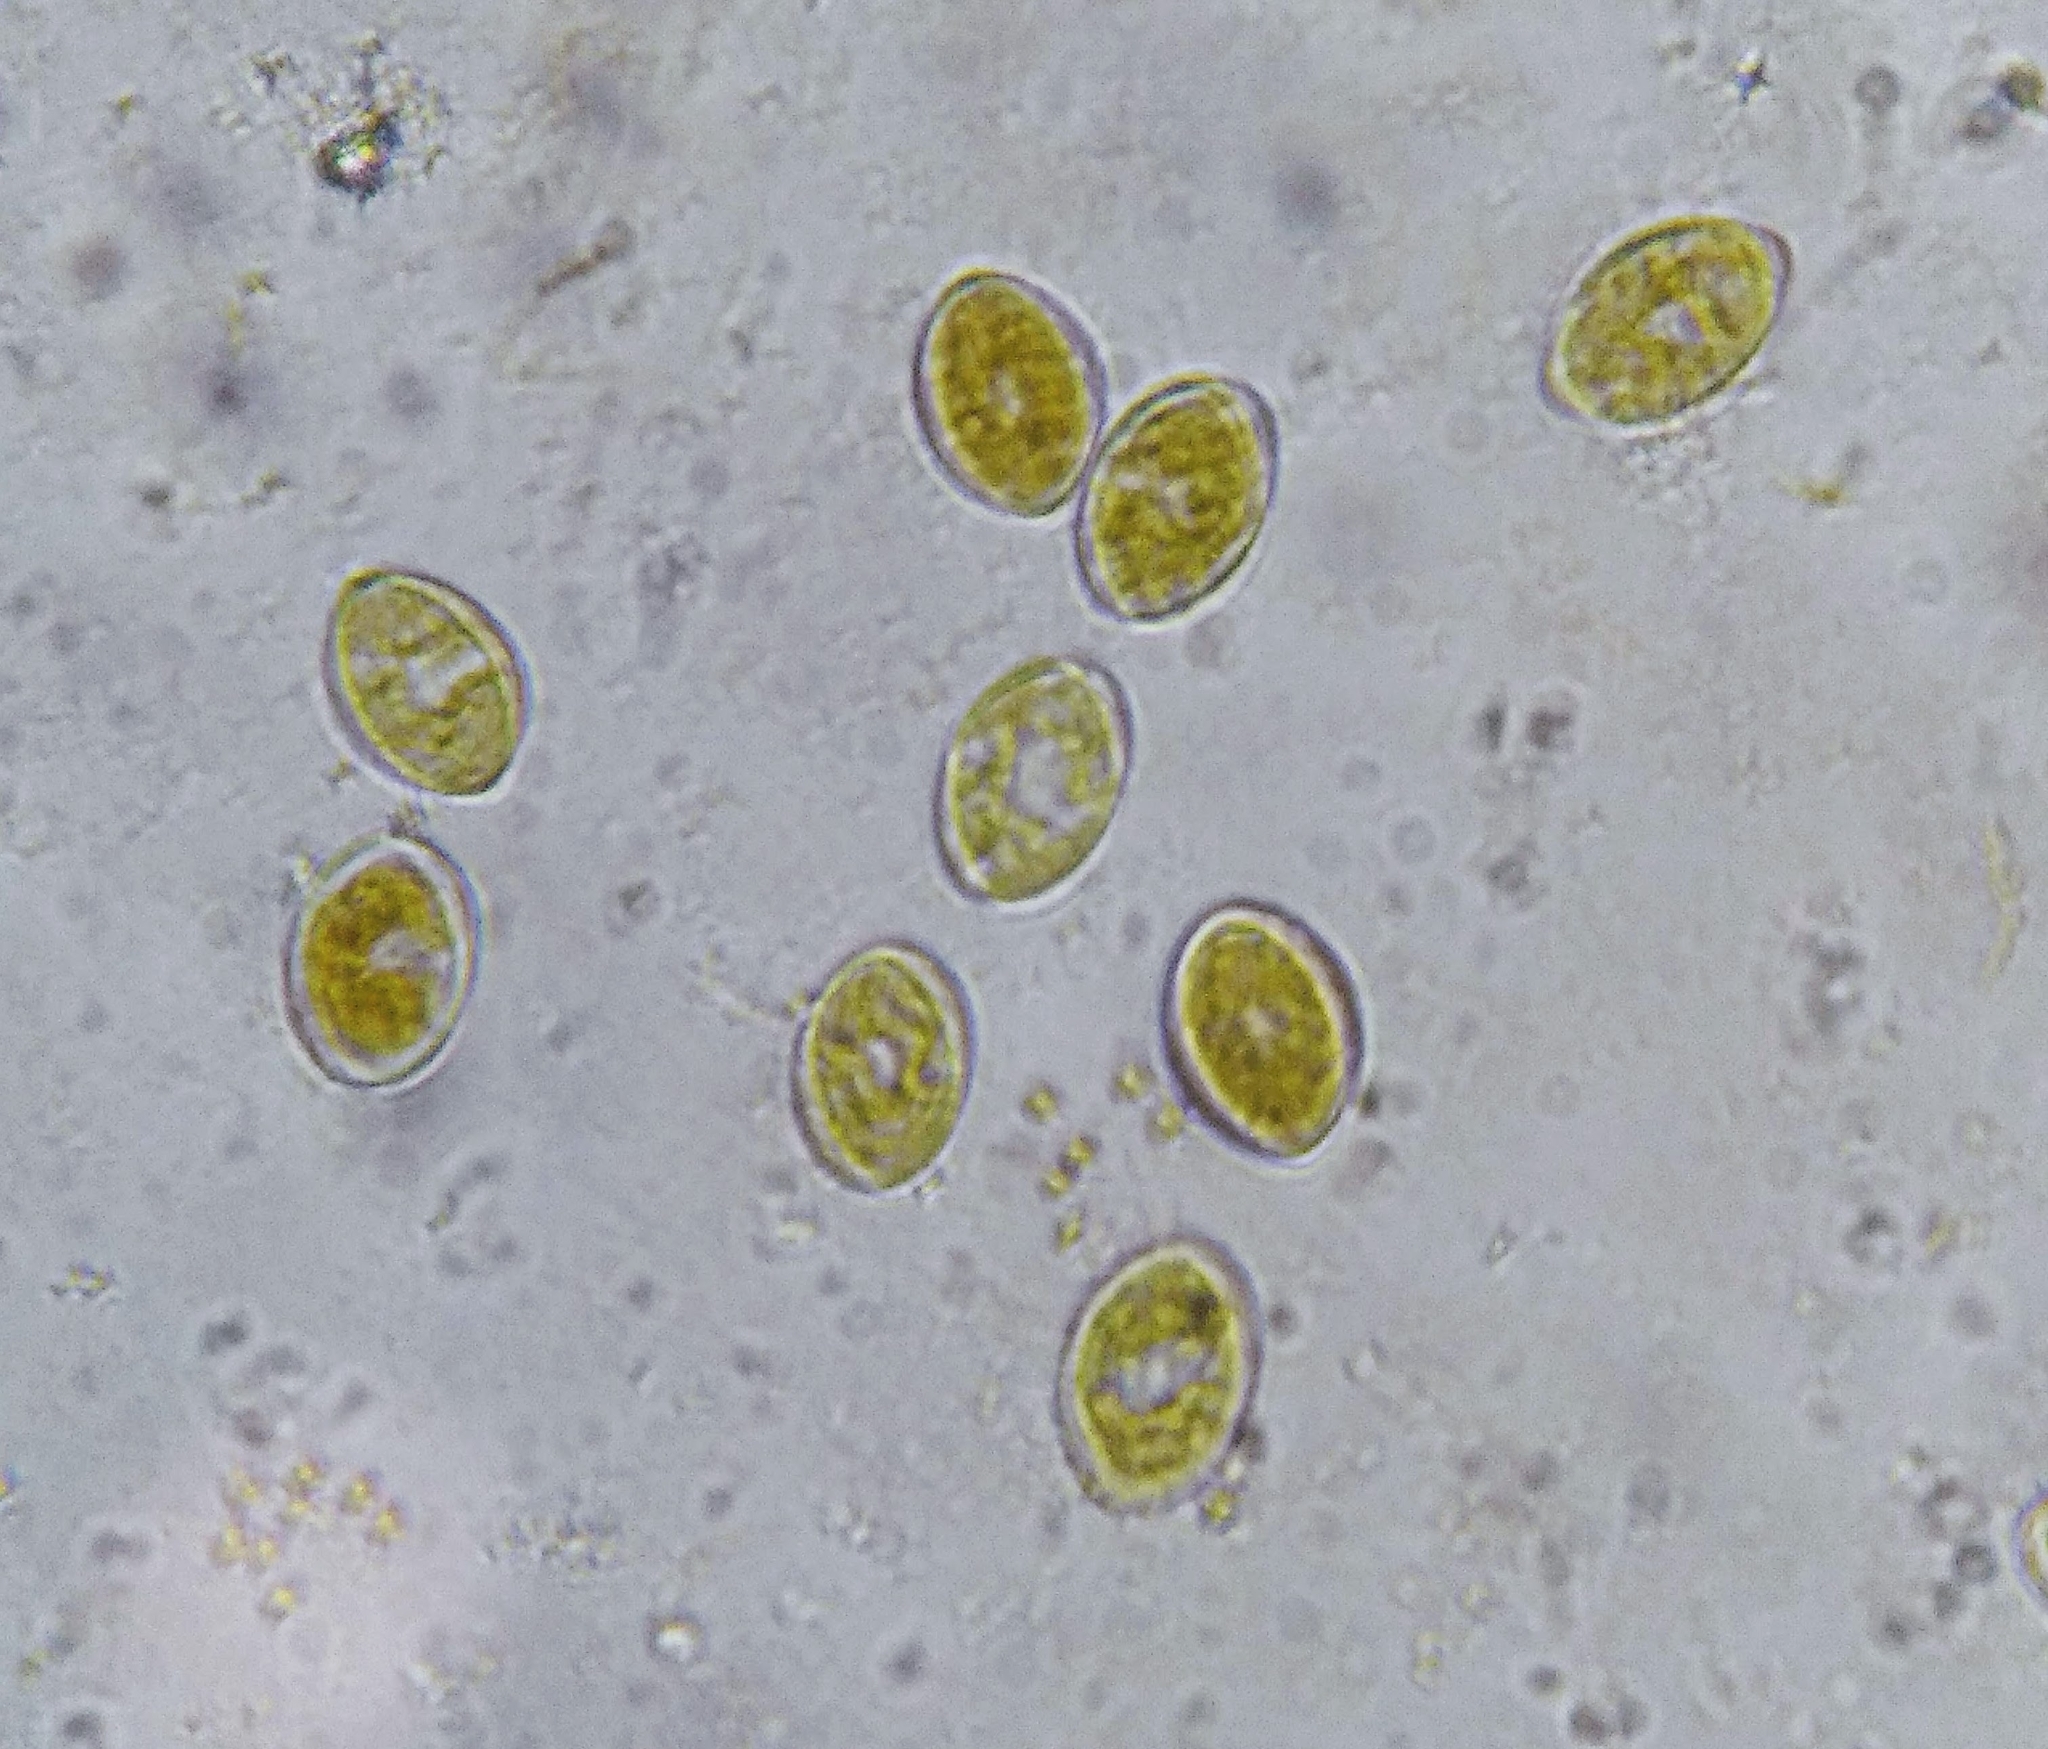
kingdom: Chromista
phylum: Ochrophyta
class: Bacillariophyceae
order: Achnanthales
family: Cocconeidaceae
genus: Cocconeis
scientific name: Cocconeis
